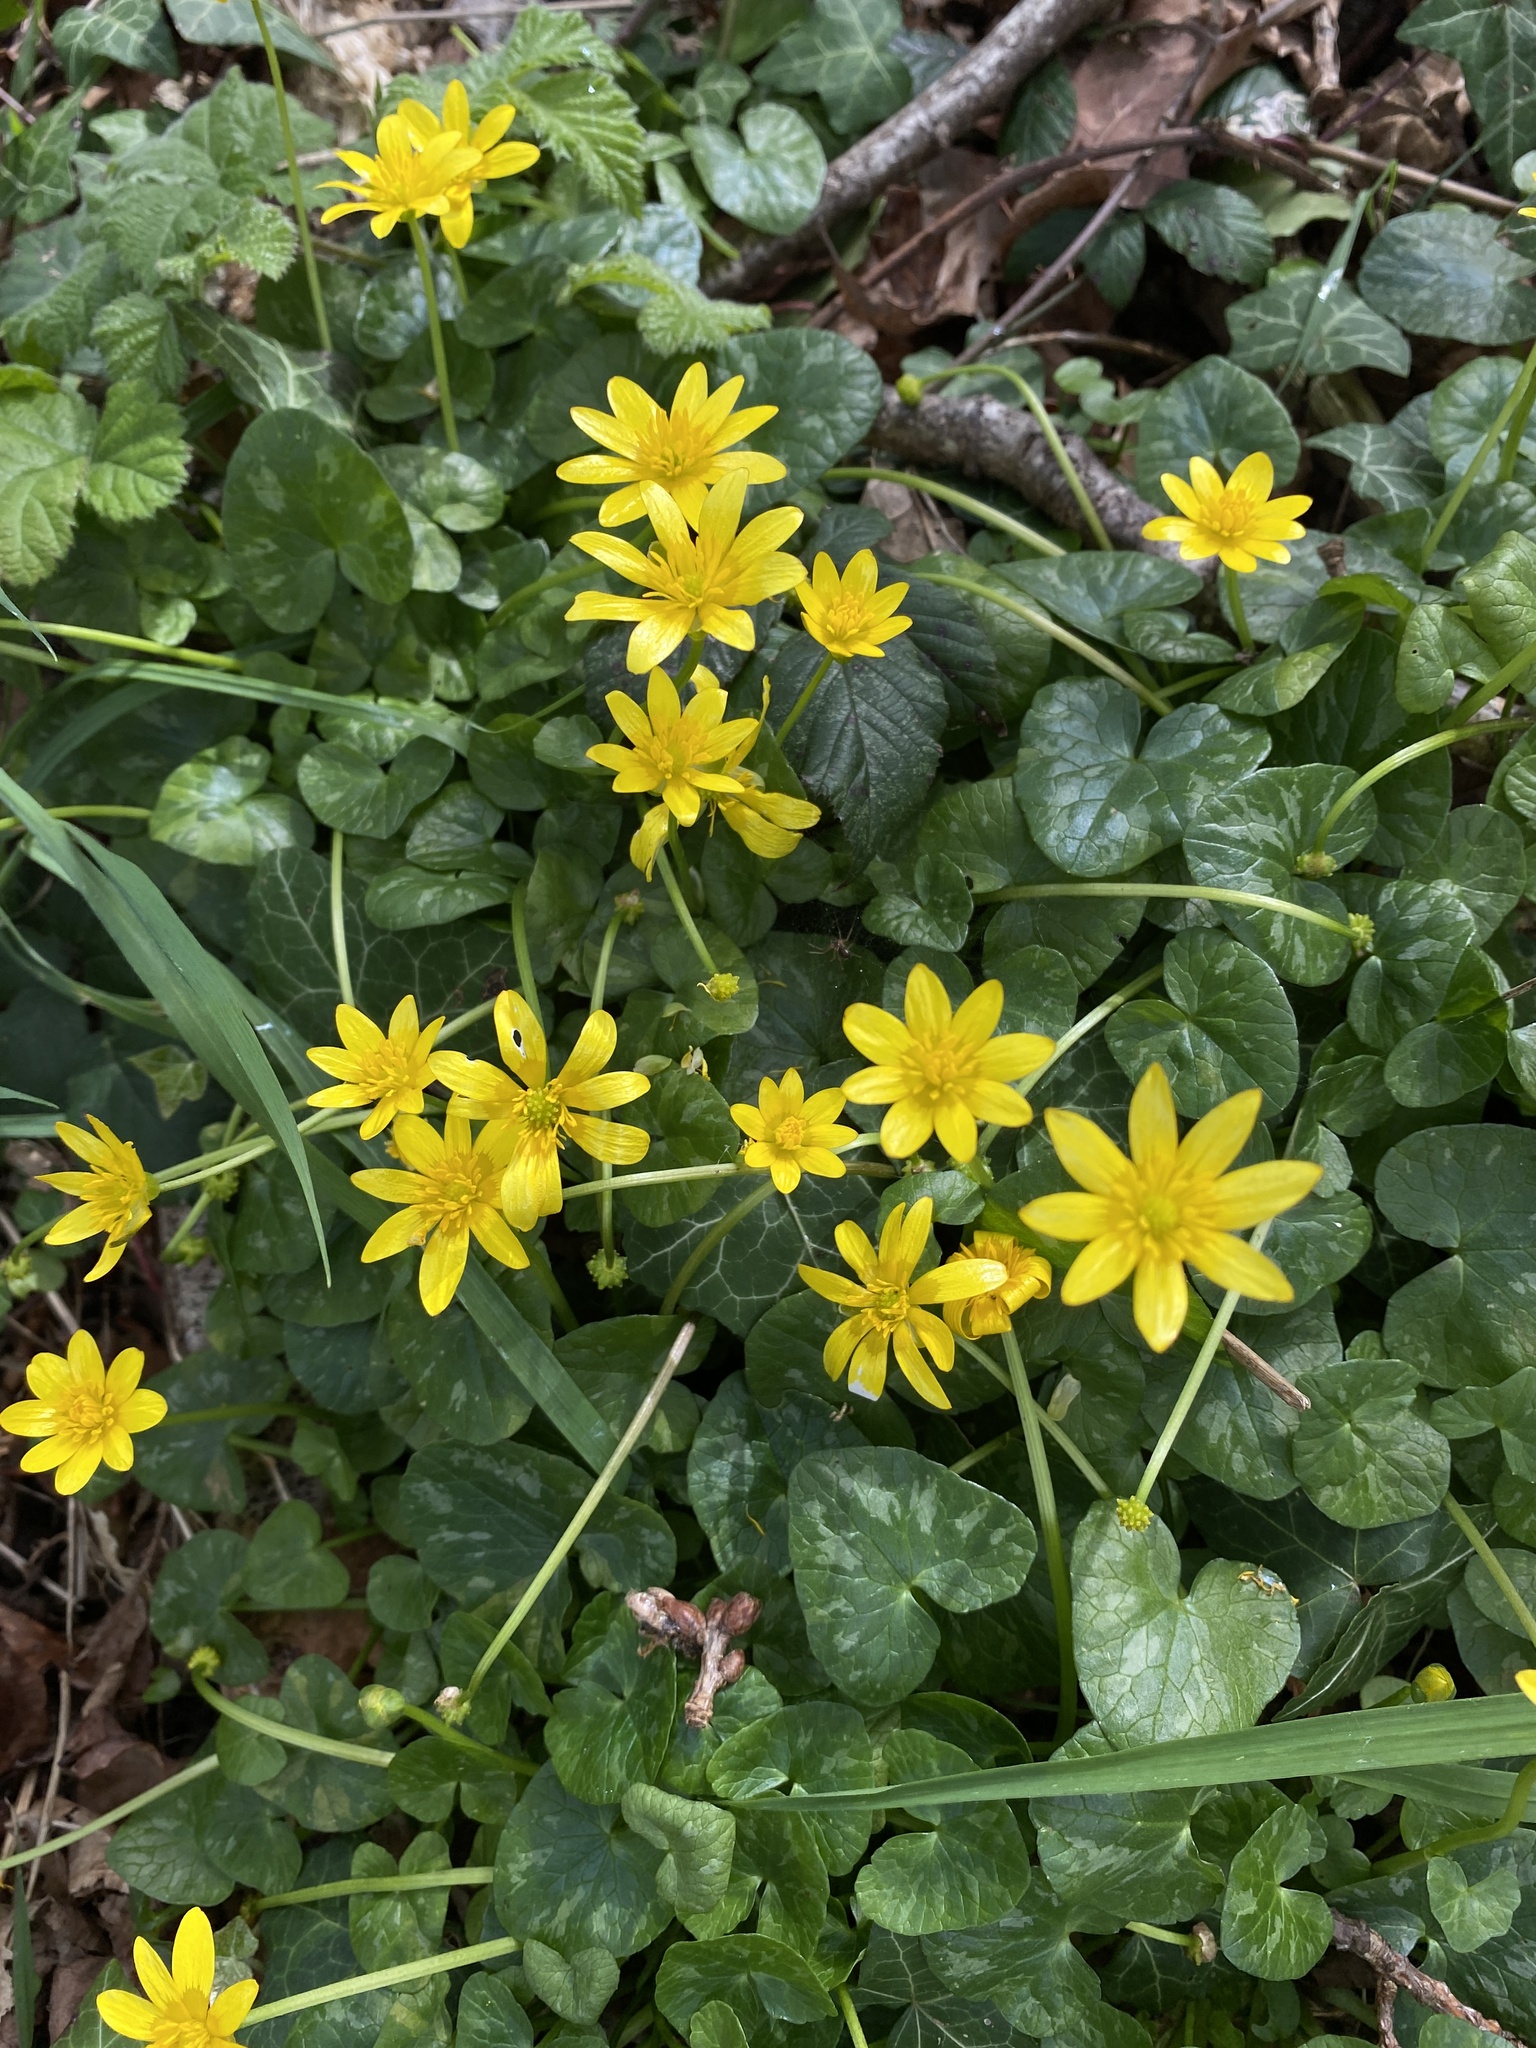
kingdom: Plantae
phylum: Tracheophyta
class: Magnoliopsida
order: Ranunculales
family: Ranunculaceae
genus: Ficaria
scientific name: Ficaria verna
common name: Lesser celandine
